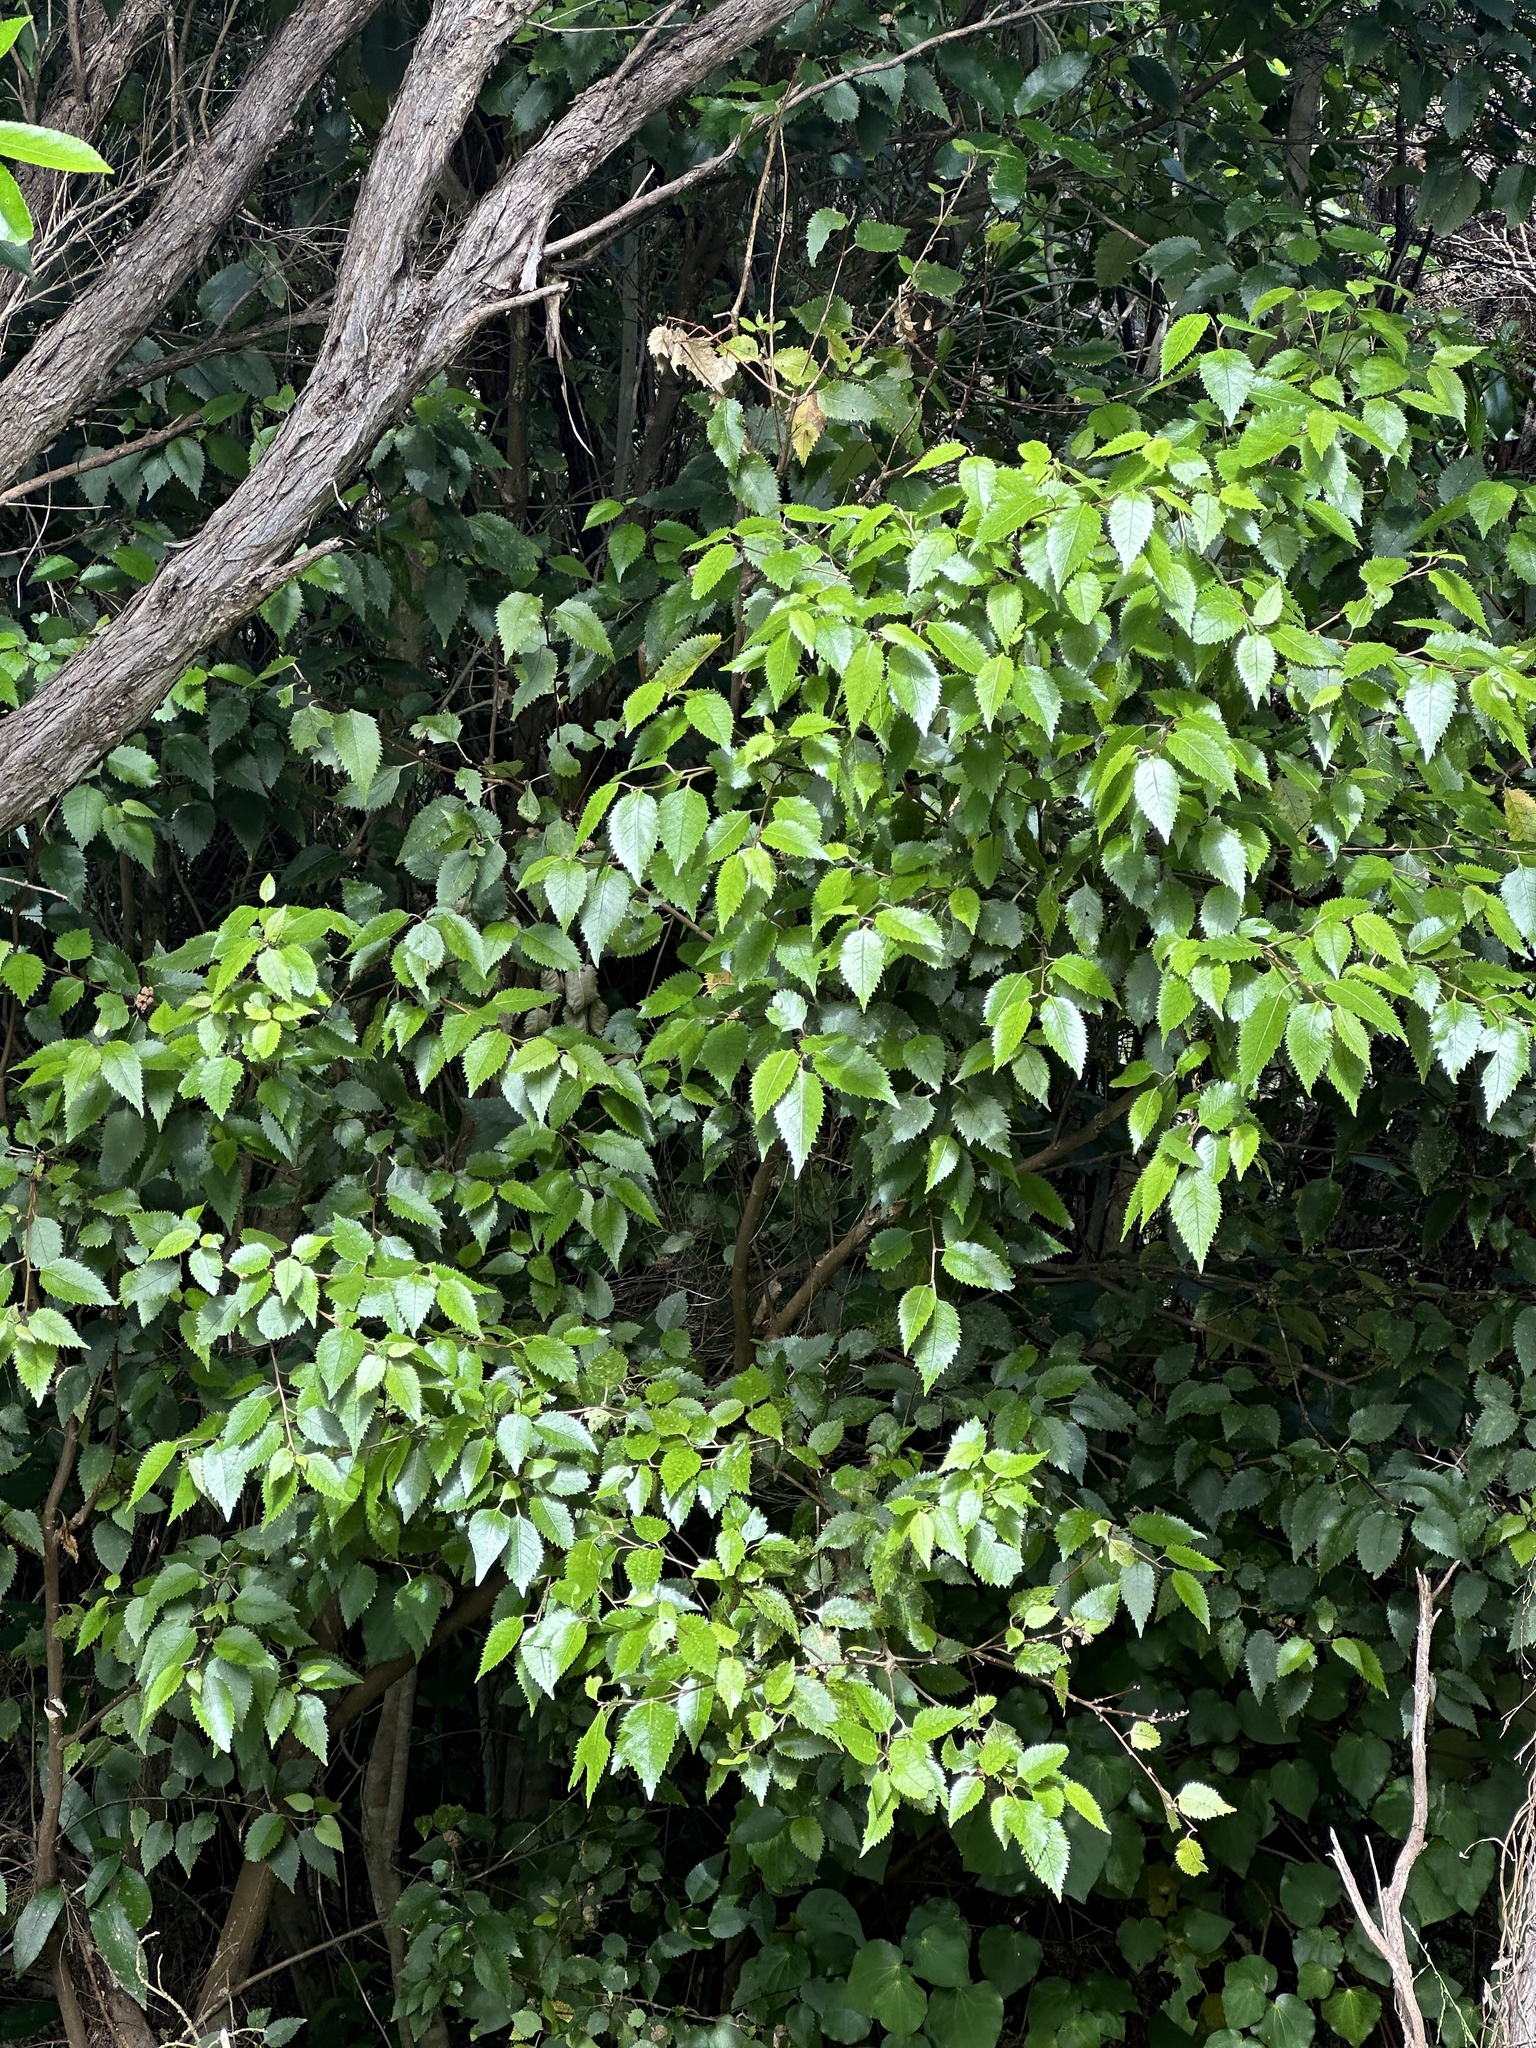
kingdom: Plantae
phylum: Tracheophyta
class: Magnoliopsida
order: Malvales
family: Malvaceae
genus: Hoheria
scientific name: Hoheria populnea
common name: Lacebark
